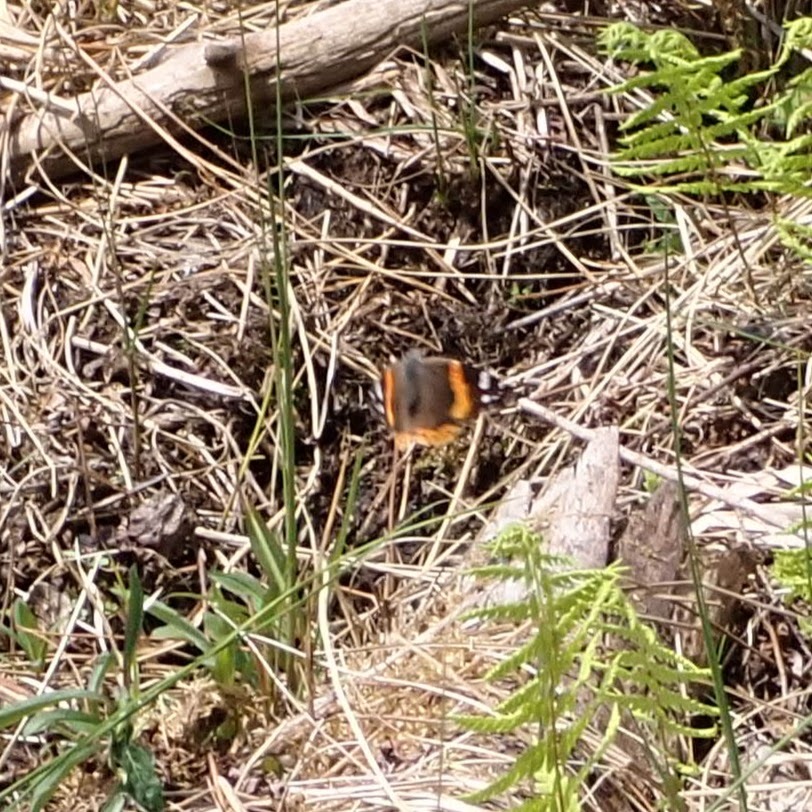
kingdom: Animalia
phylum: Arthropoda
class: Insecta
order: Lepidoptera
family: Nymphalidae
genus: Vanessa
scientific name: Vanessa atalanta
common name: Red admiral
